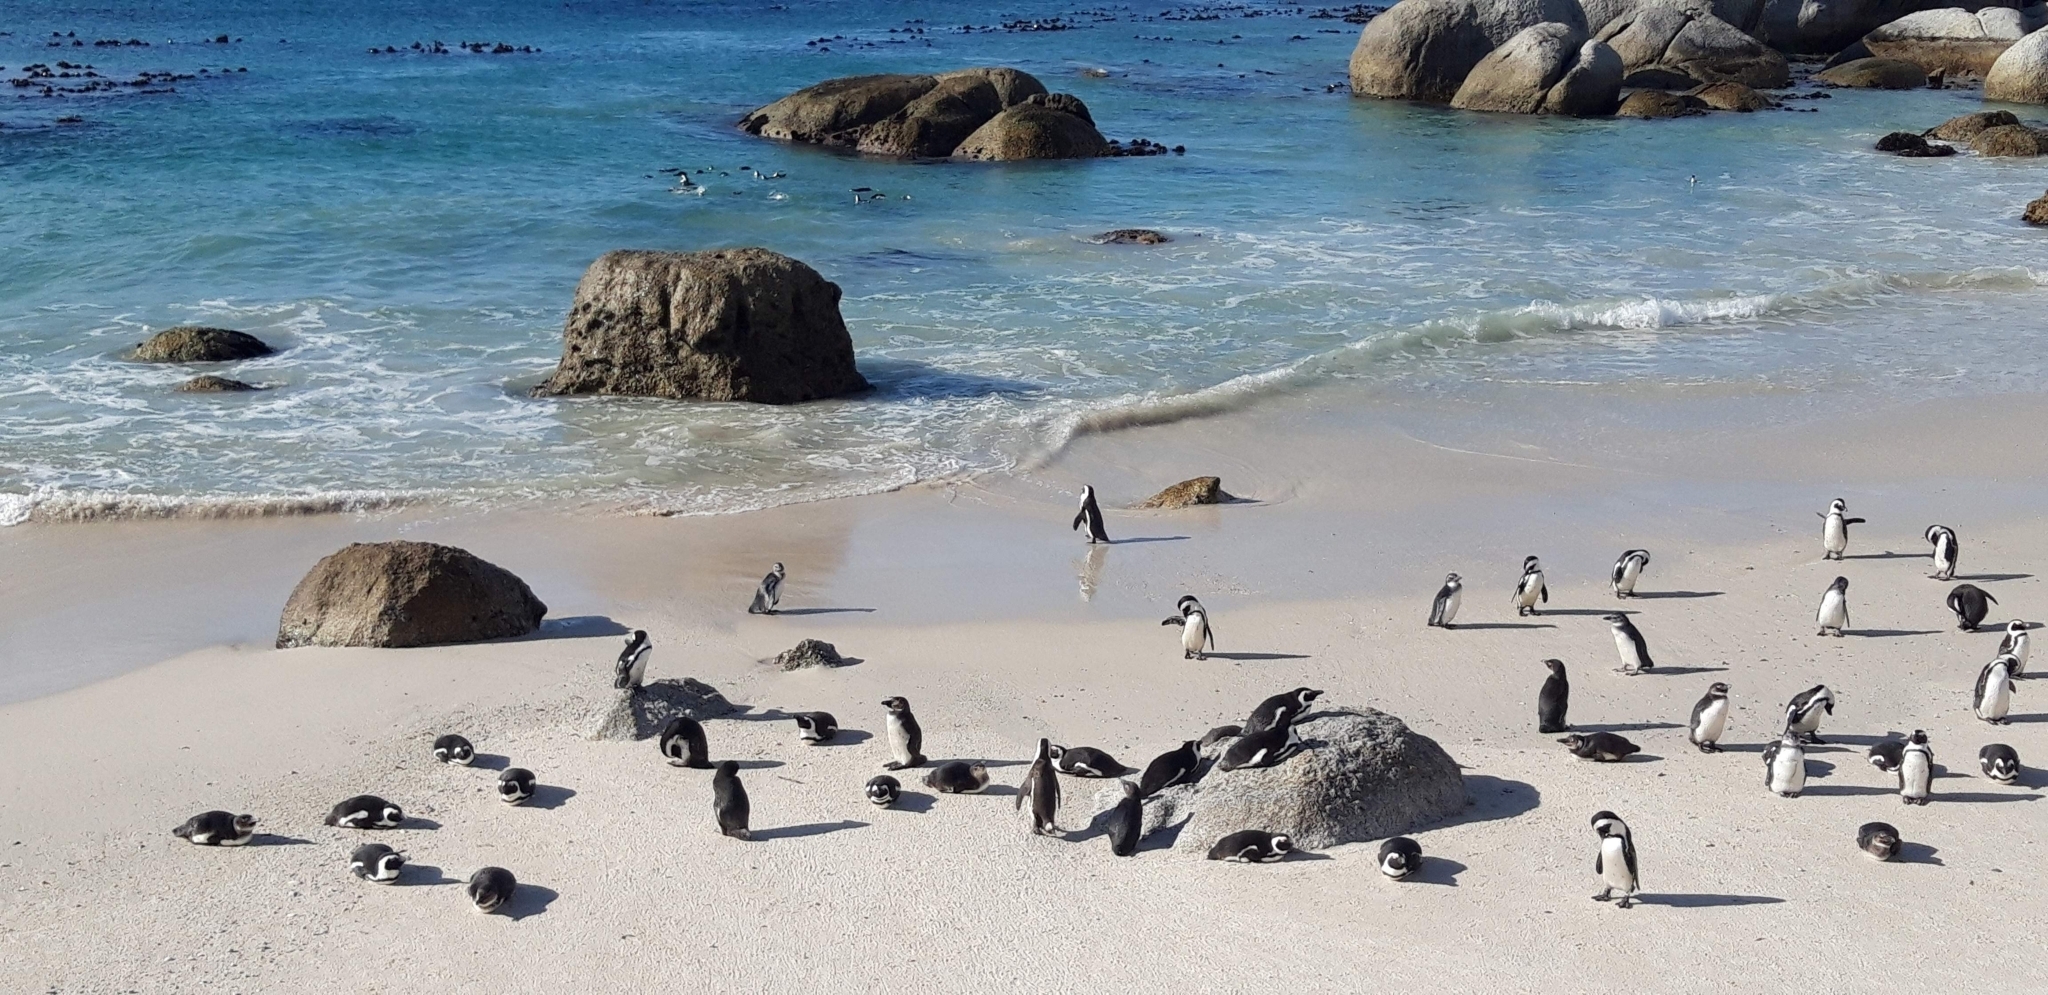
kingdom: Animalia
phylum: Chordata
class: Aves
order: Sphenisciformes
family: Spheniscidae
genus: Spheniscus
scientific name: Spheniscus demersus
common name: African penguin
